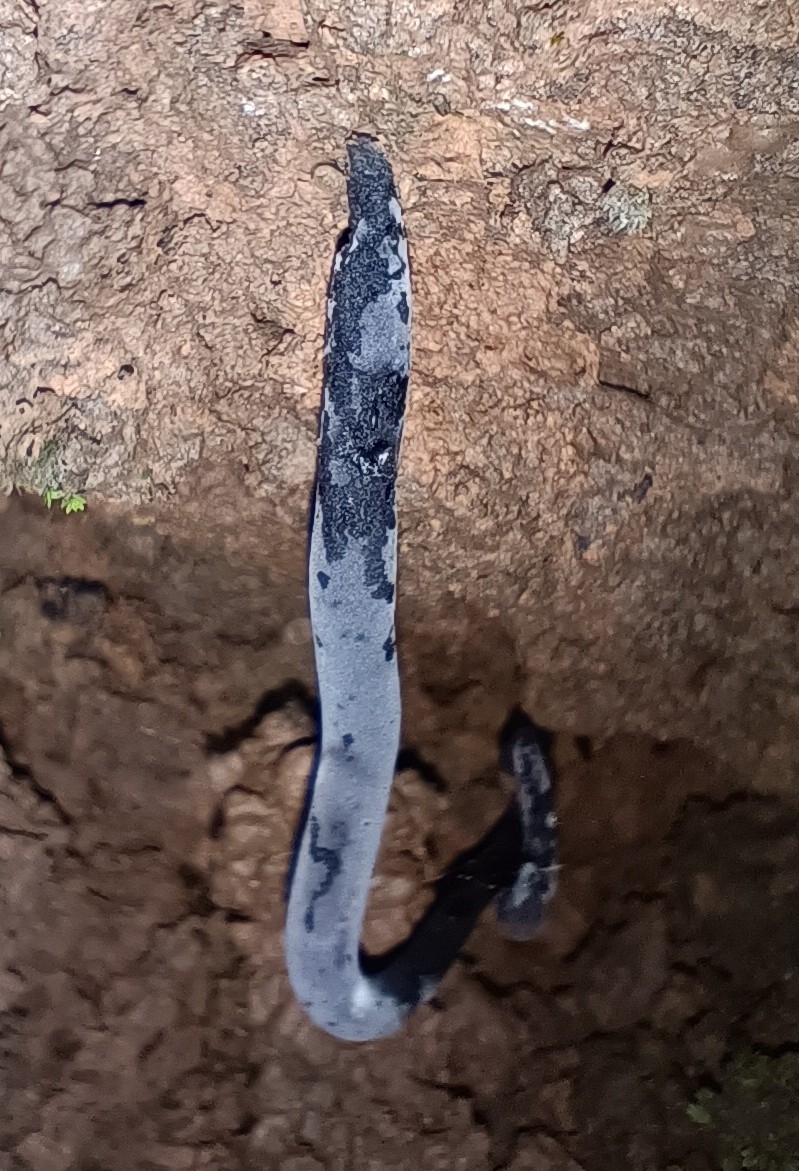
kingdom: Fungi
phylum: Ascomycota
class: Sordariomycetes
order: Xylariales
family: Xylariaceae
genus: Xylaria
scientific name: Xylaria cornu-damae
